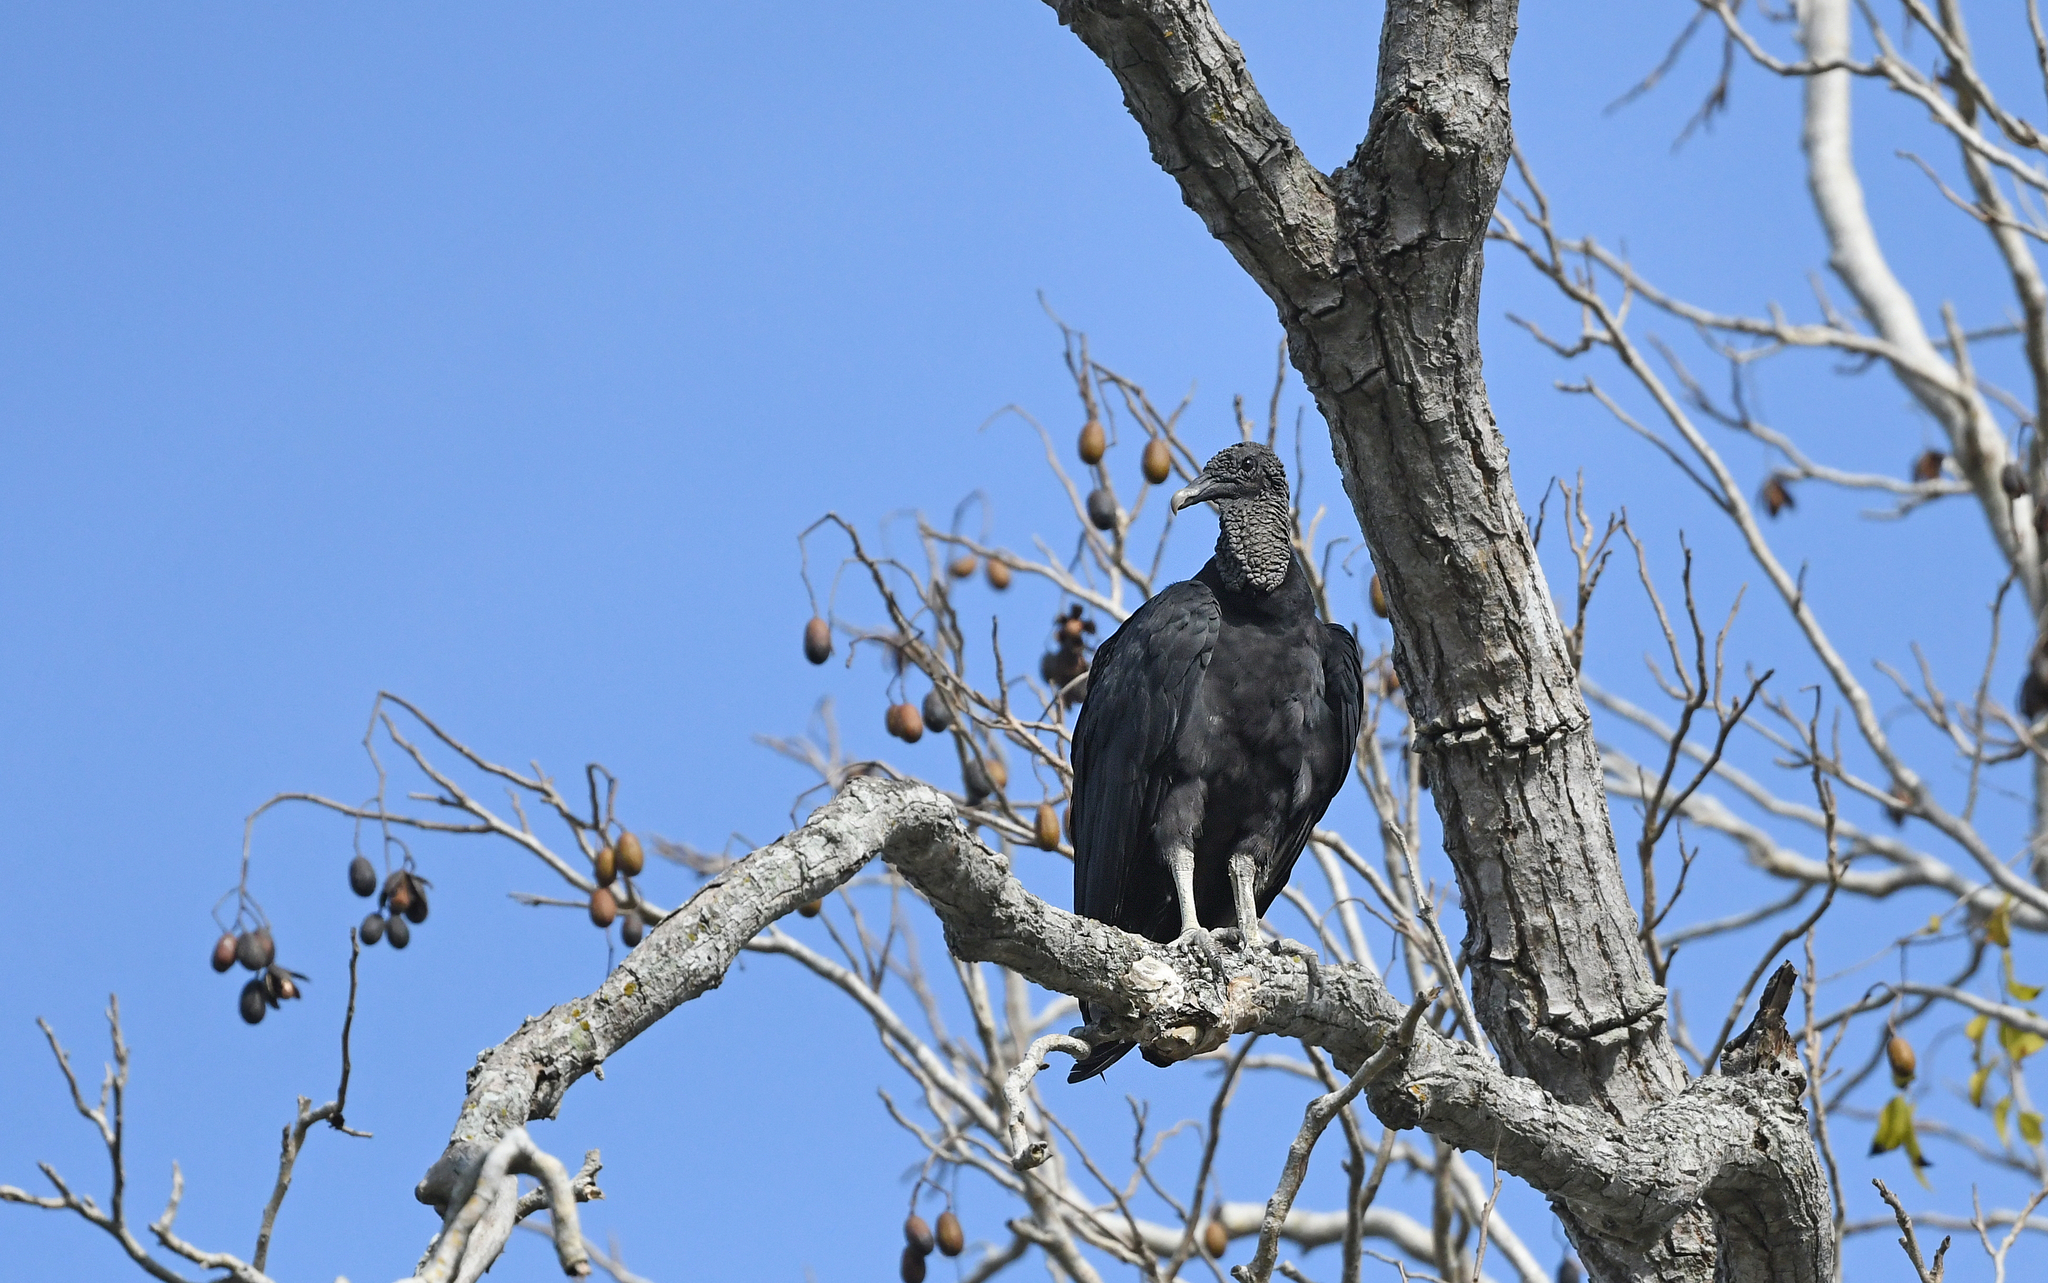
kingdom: Animalia
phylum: Chordata
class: Aves
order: Accipitriformes
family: Cathartidae
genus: Coragyps
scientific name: Coragyps atratus
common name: Black vulture
